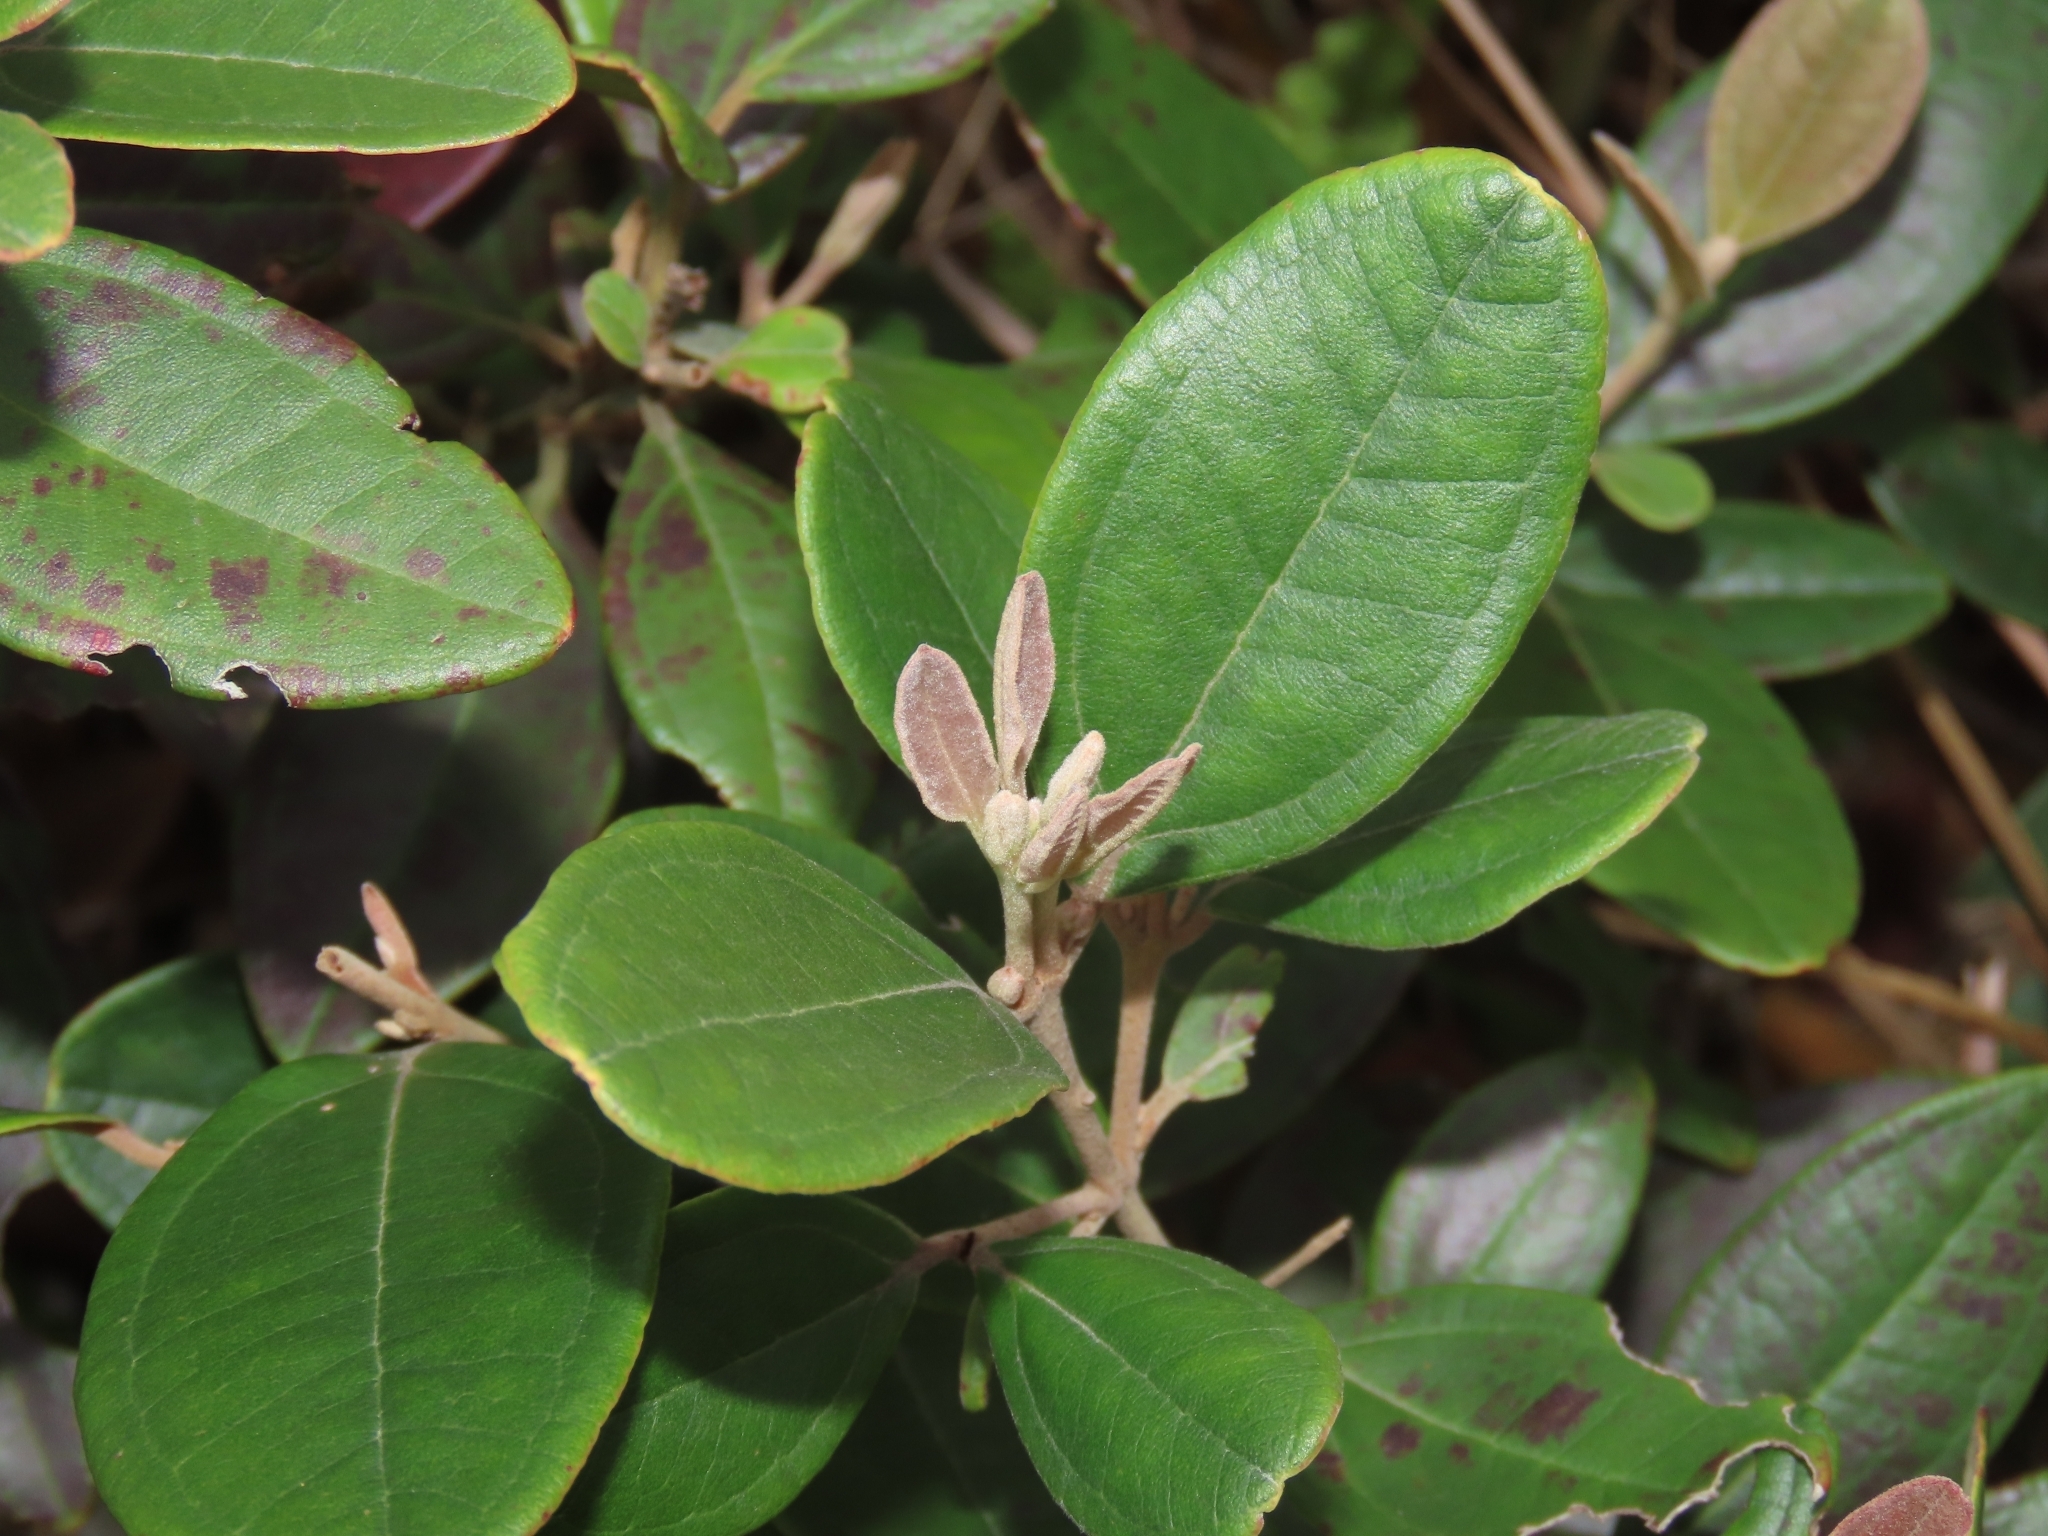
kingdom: Plantae
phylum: Tracheophyta
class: Magnoliopsida
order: Myrtales
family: Myrtaceae
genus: Rhodomyrtus
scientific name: Rhodomyrtus tomentosa
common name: Rose myrtle
